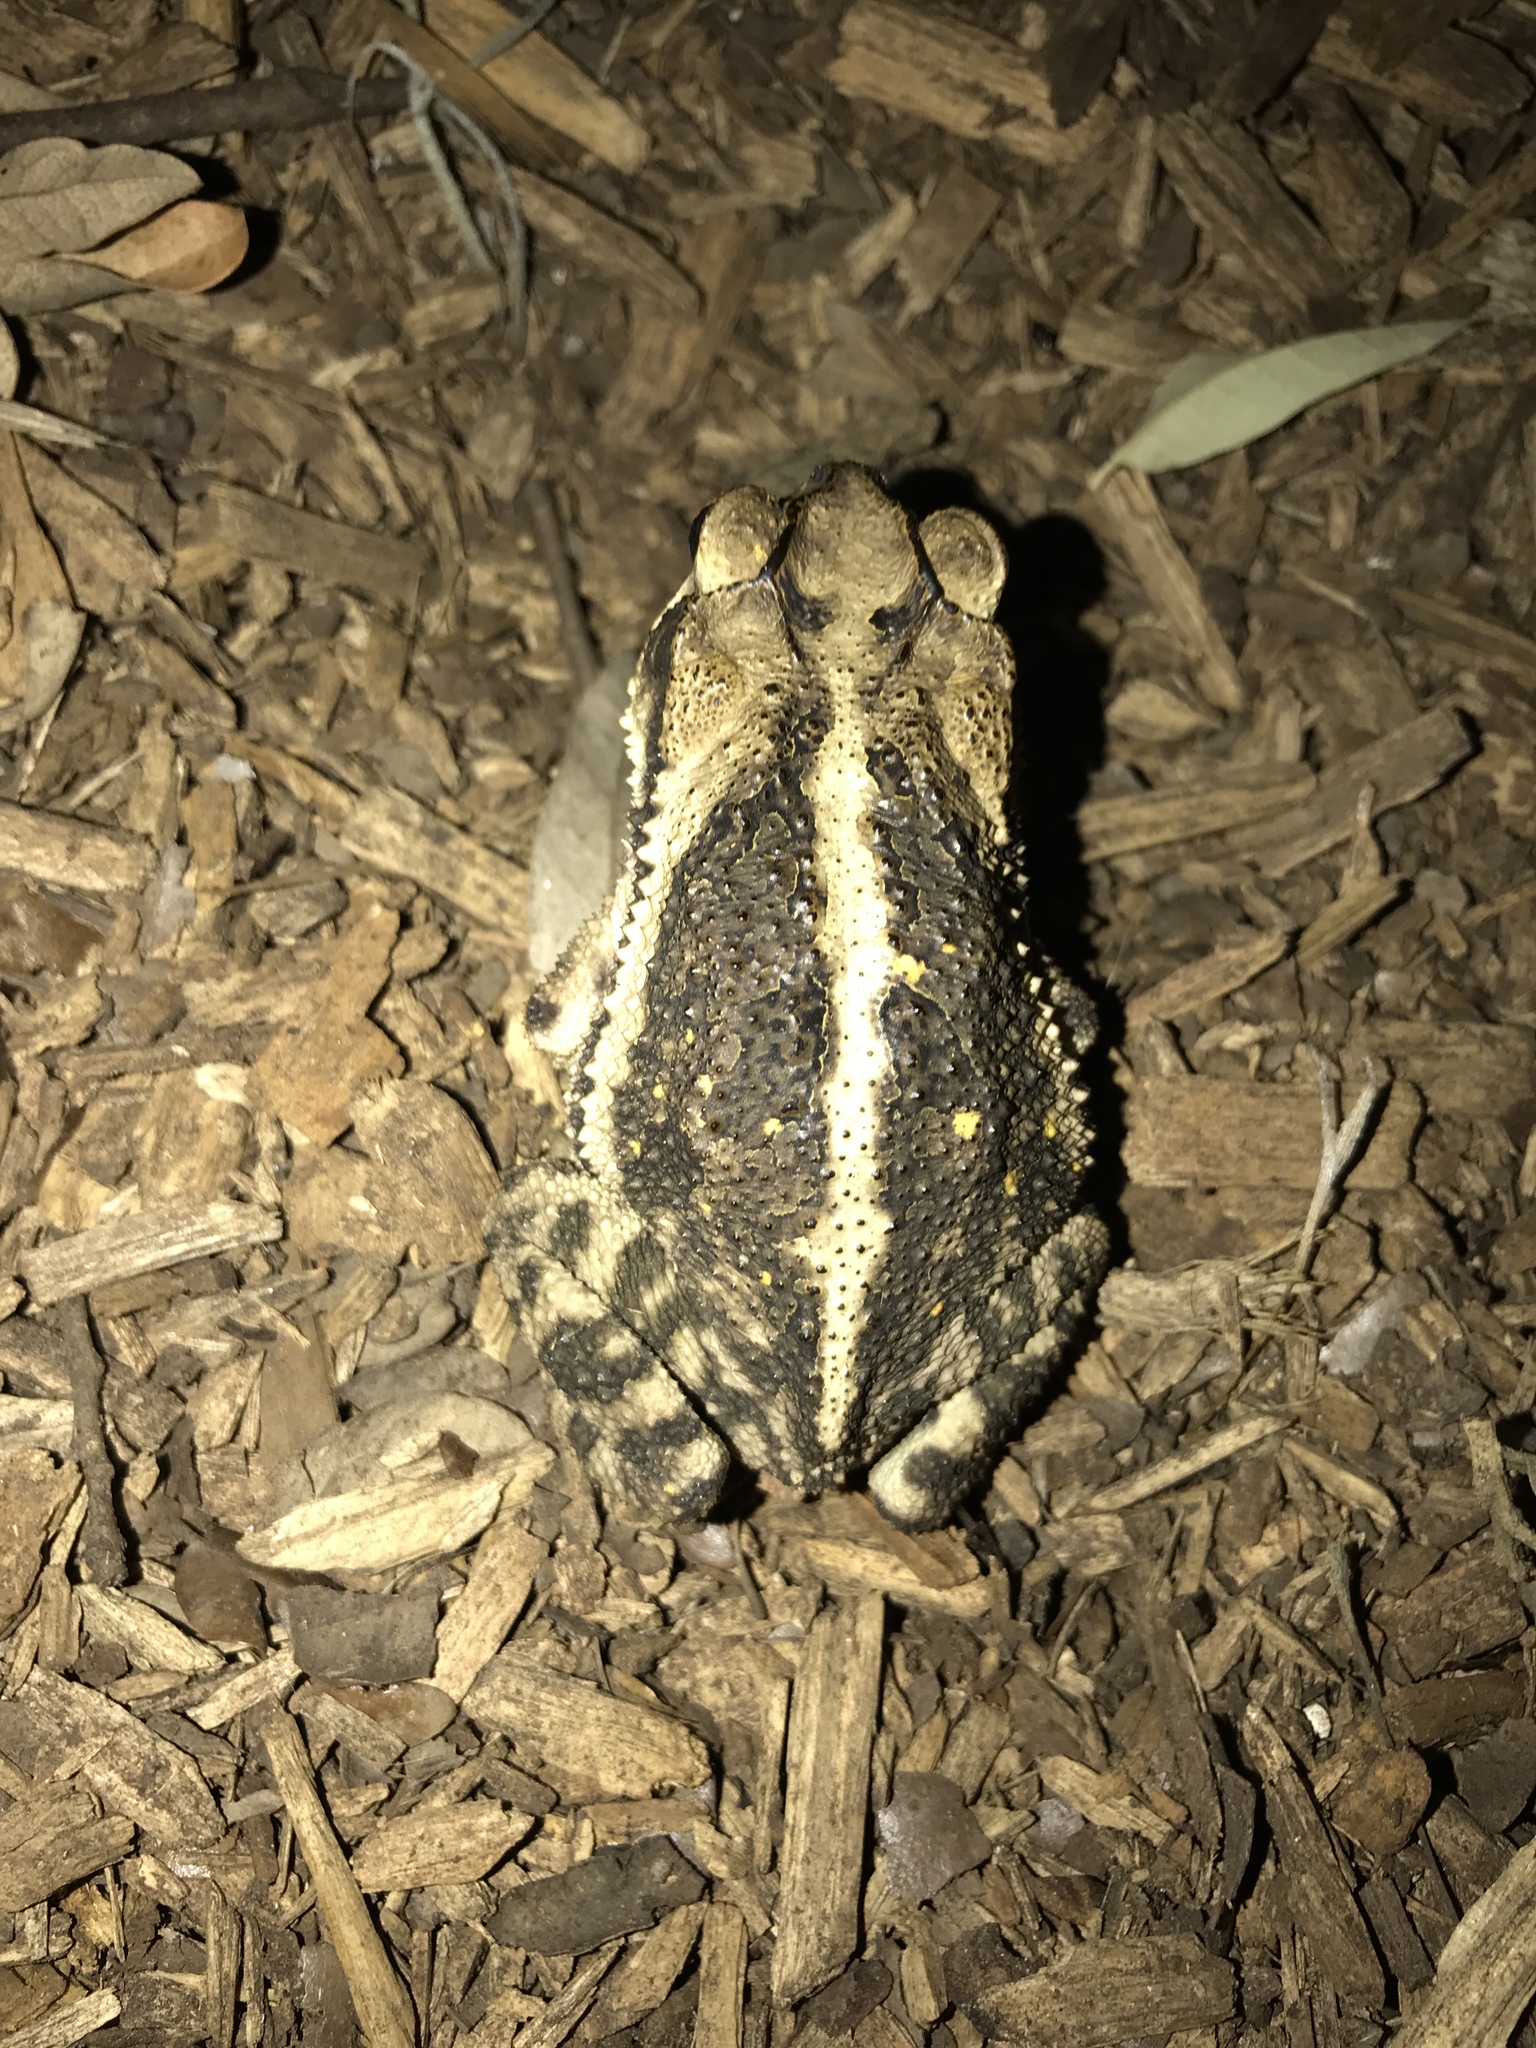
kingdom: Animalia
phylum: Chordata
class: Amphibia
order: Anura
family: Bufonidae
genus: Incilius
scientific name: Incilius nebulifer
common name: Gulf coast toad
